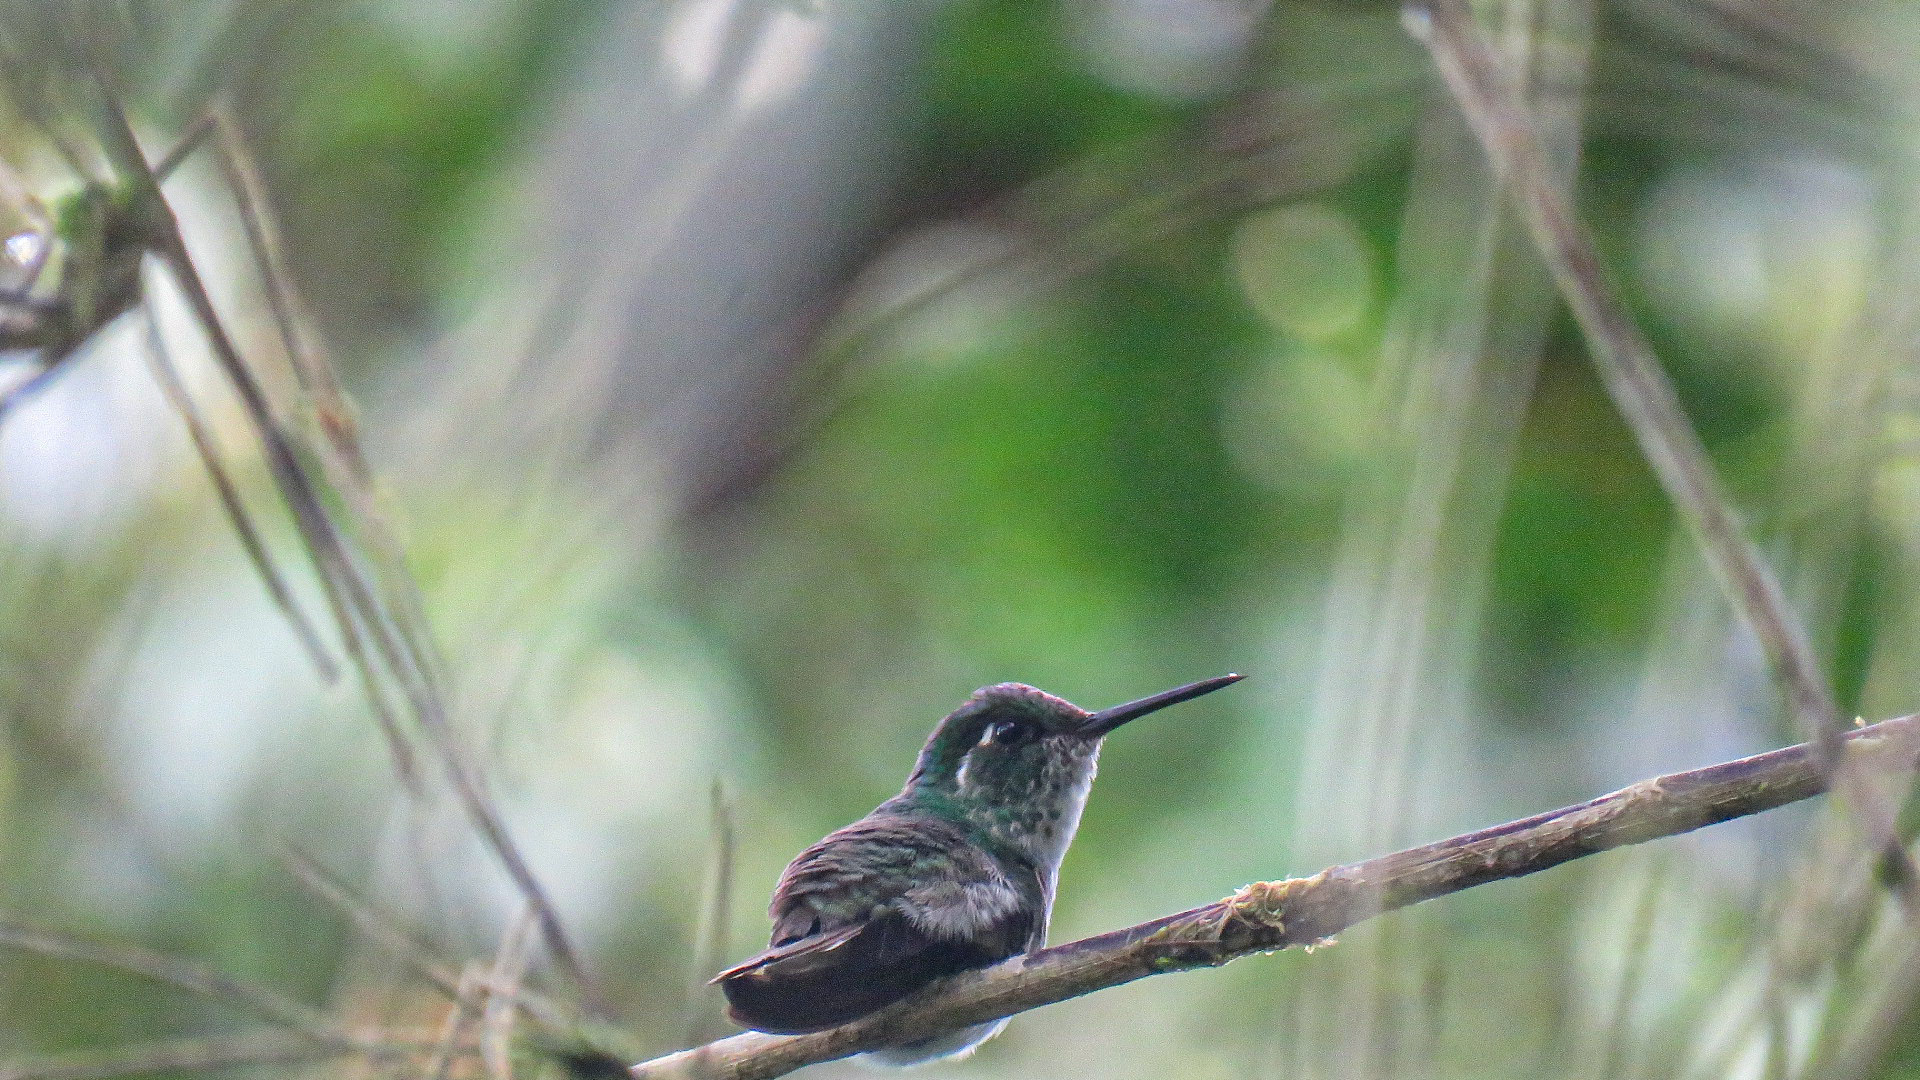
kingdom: Animalia
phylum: Chordata
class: Aves
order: Apodiformes
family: Trochilidae
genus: Lampornis
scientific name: Lampornis hemileucus
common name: White-bellied mountain-gem
